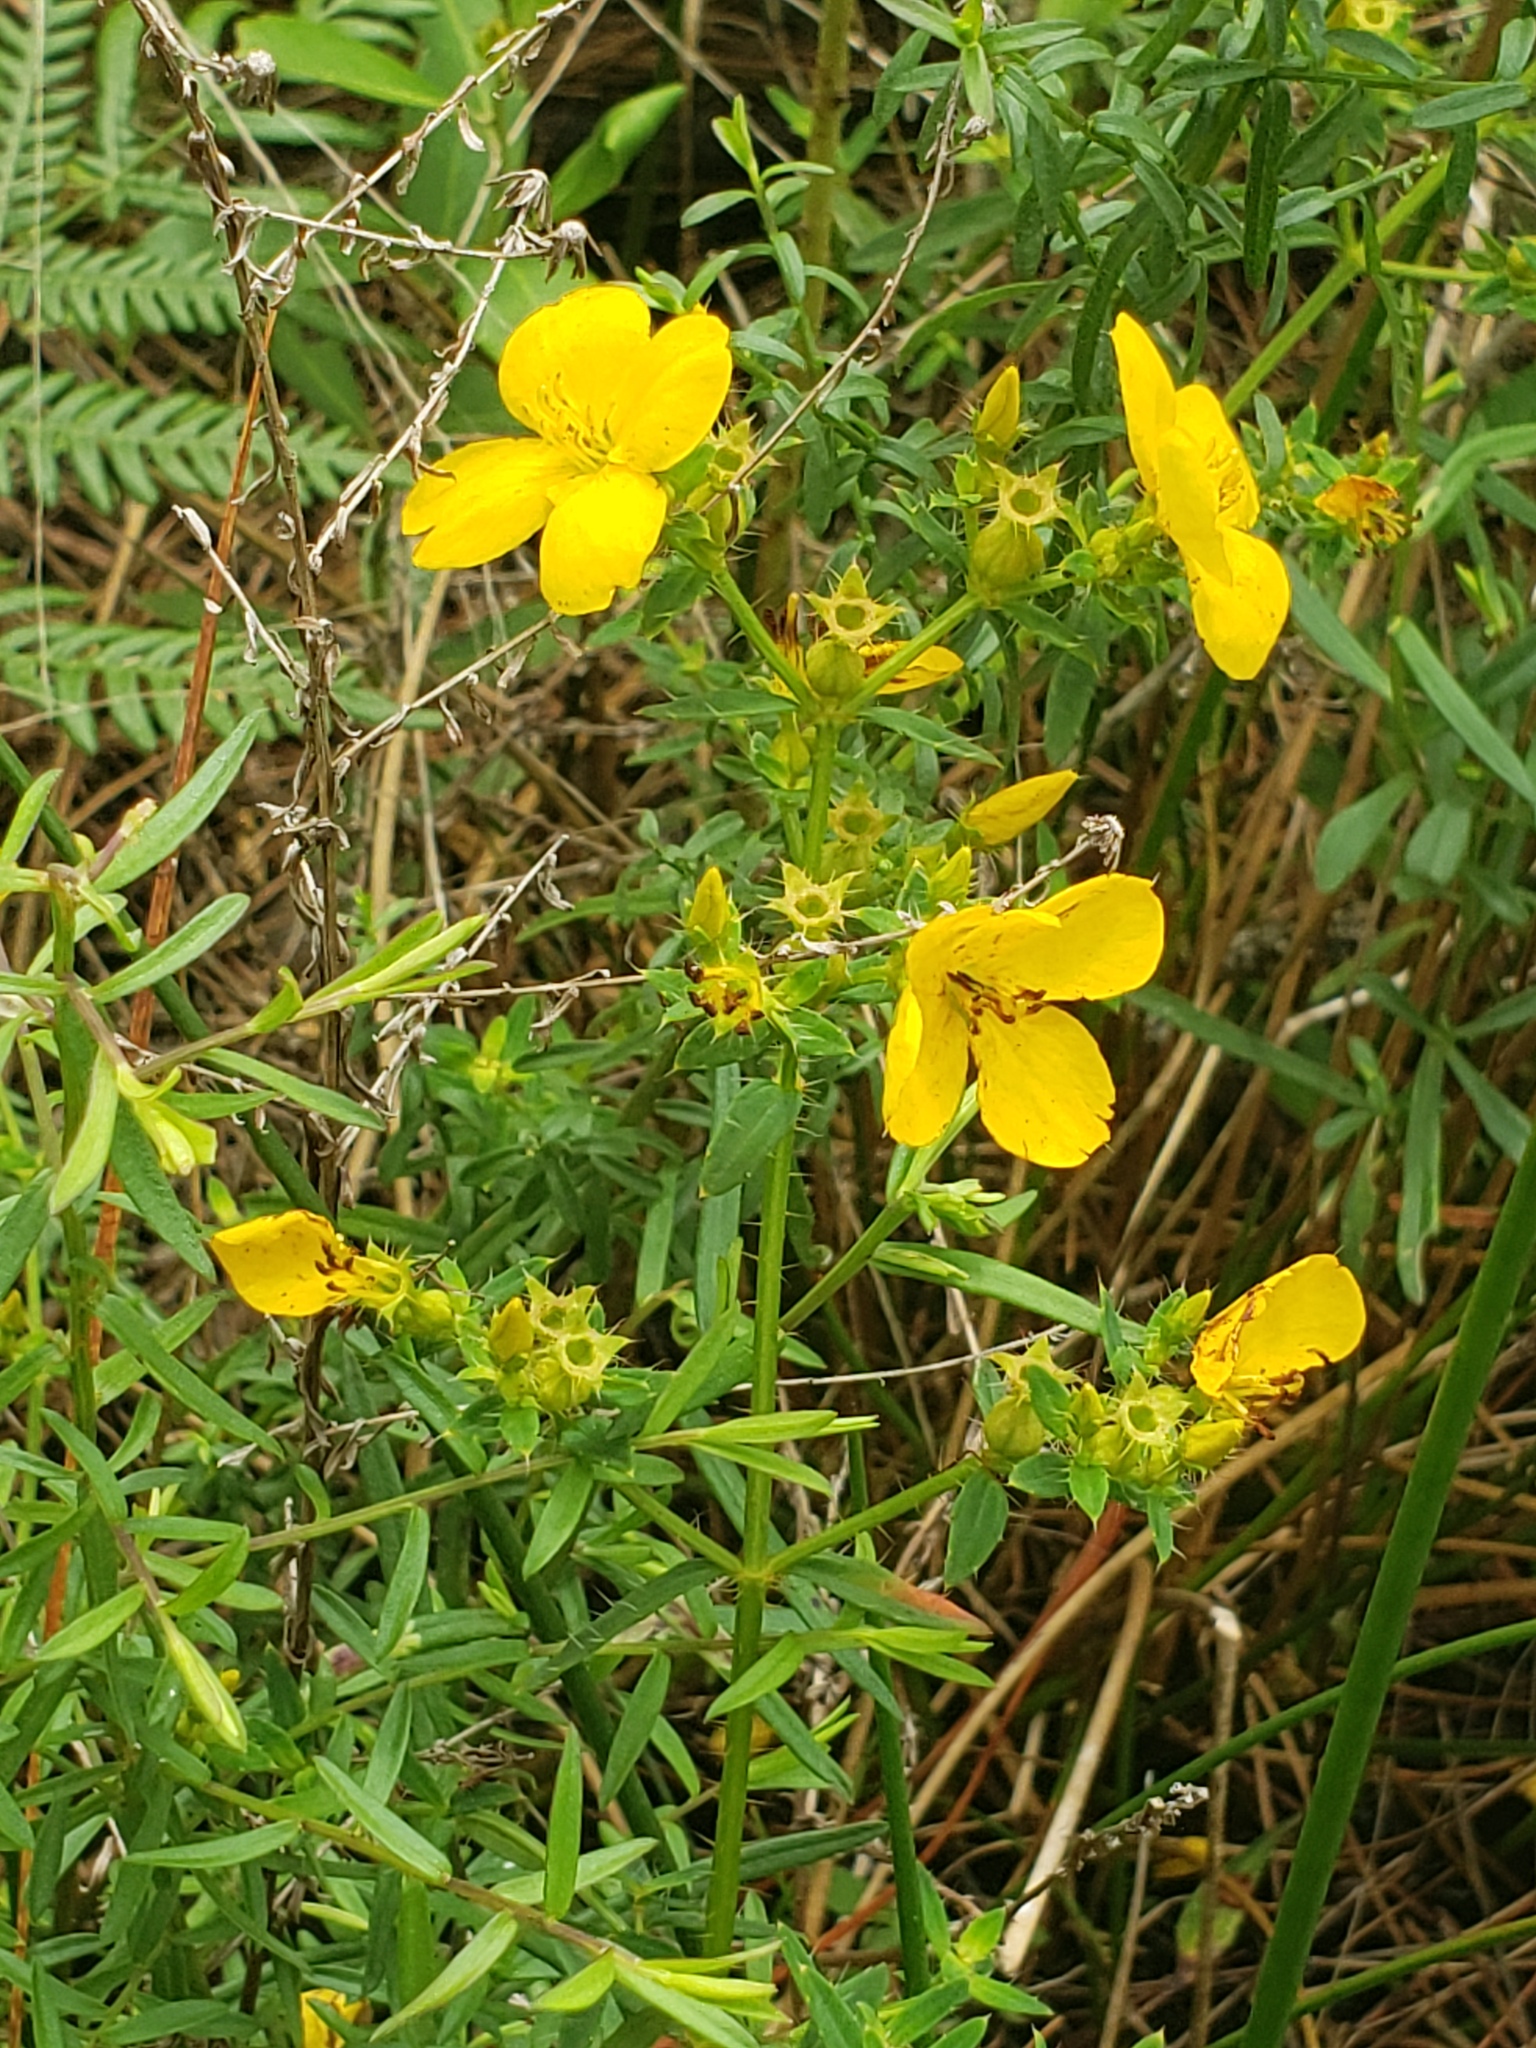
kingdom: Plantae
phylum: Tracheophyta
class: Magnoliopsida
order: Myrtales
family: Melastomataceae
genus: Rhexia
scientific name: Rhexia lutea
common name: Golden meadow-beauty
